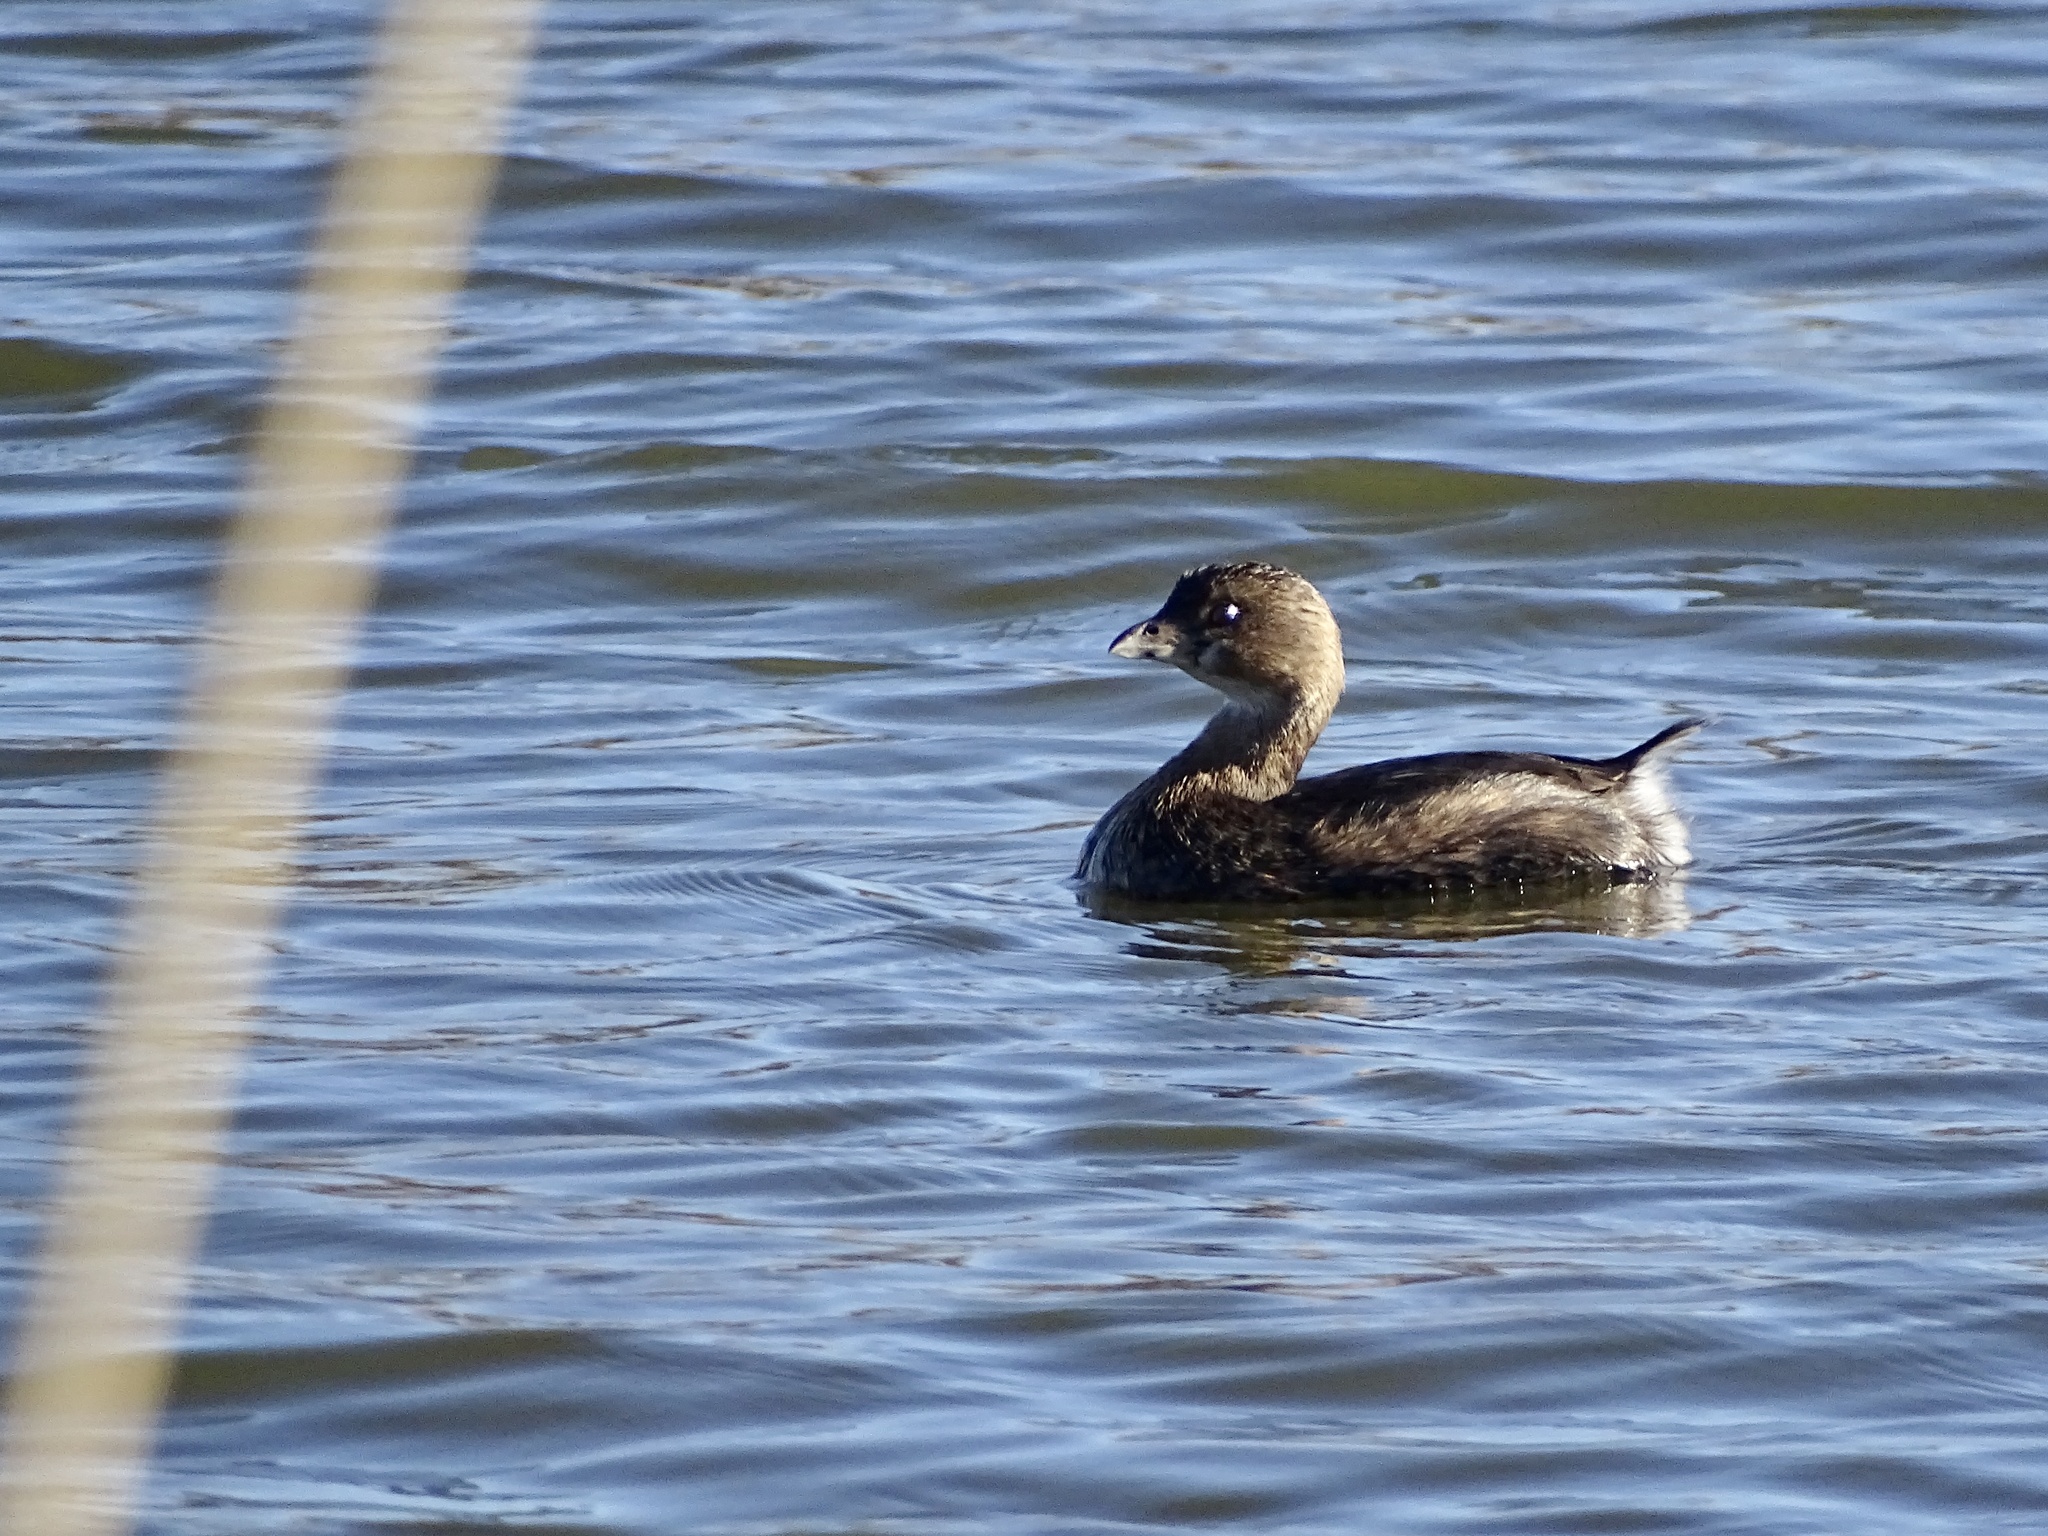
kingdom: Animalia
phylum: Chordata
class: Aves
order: Podicipediformes
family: Podicipedidae
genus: Podilymbus
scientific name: Podilymbus podiceps
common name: Pied-billed grebe
